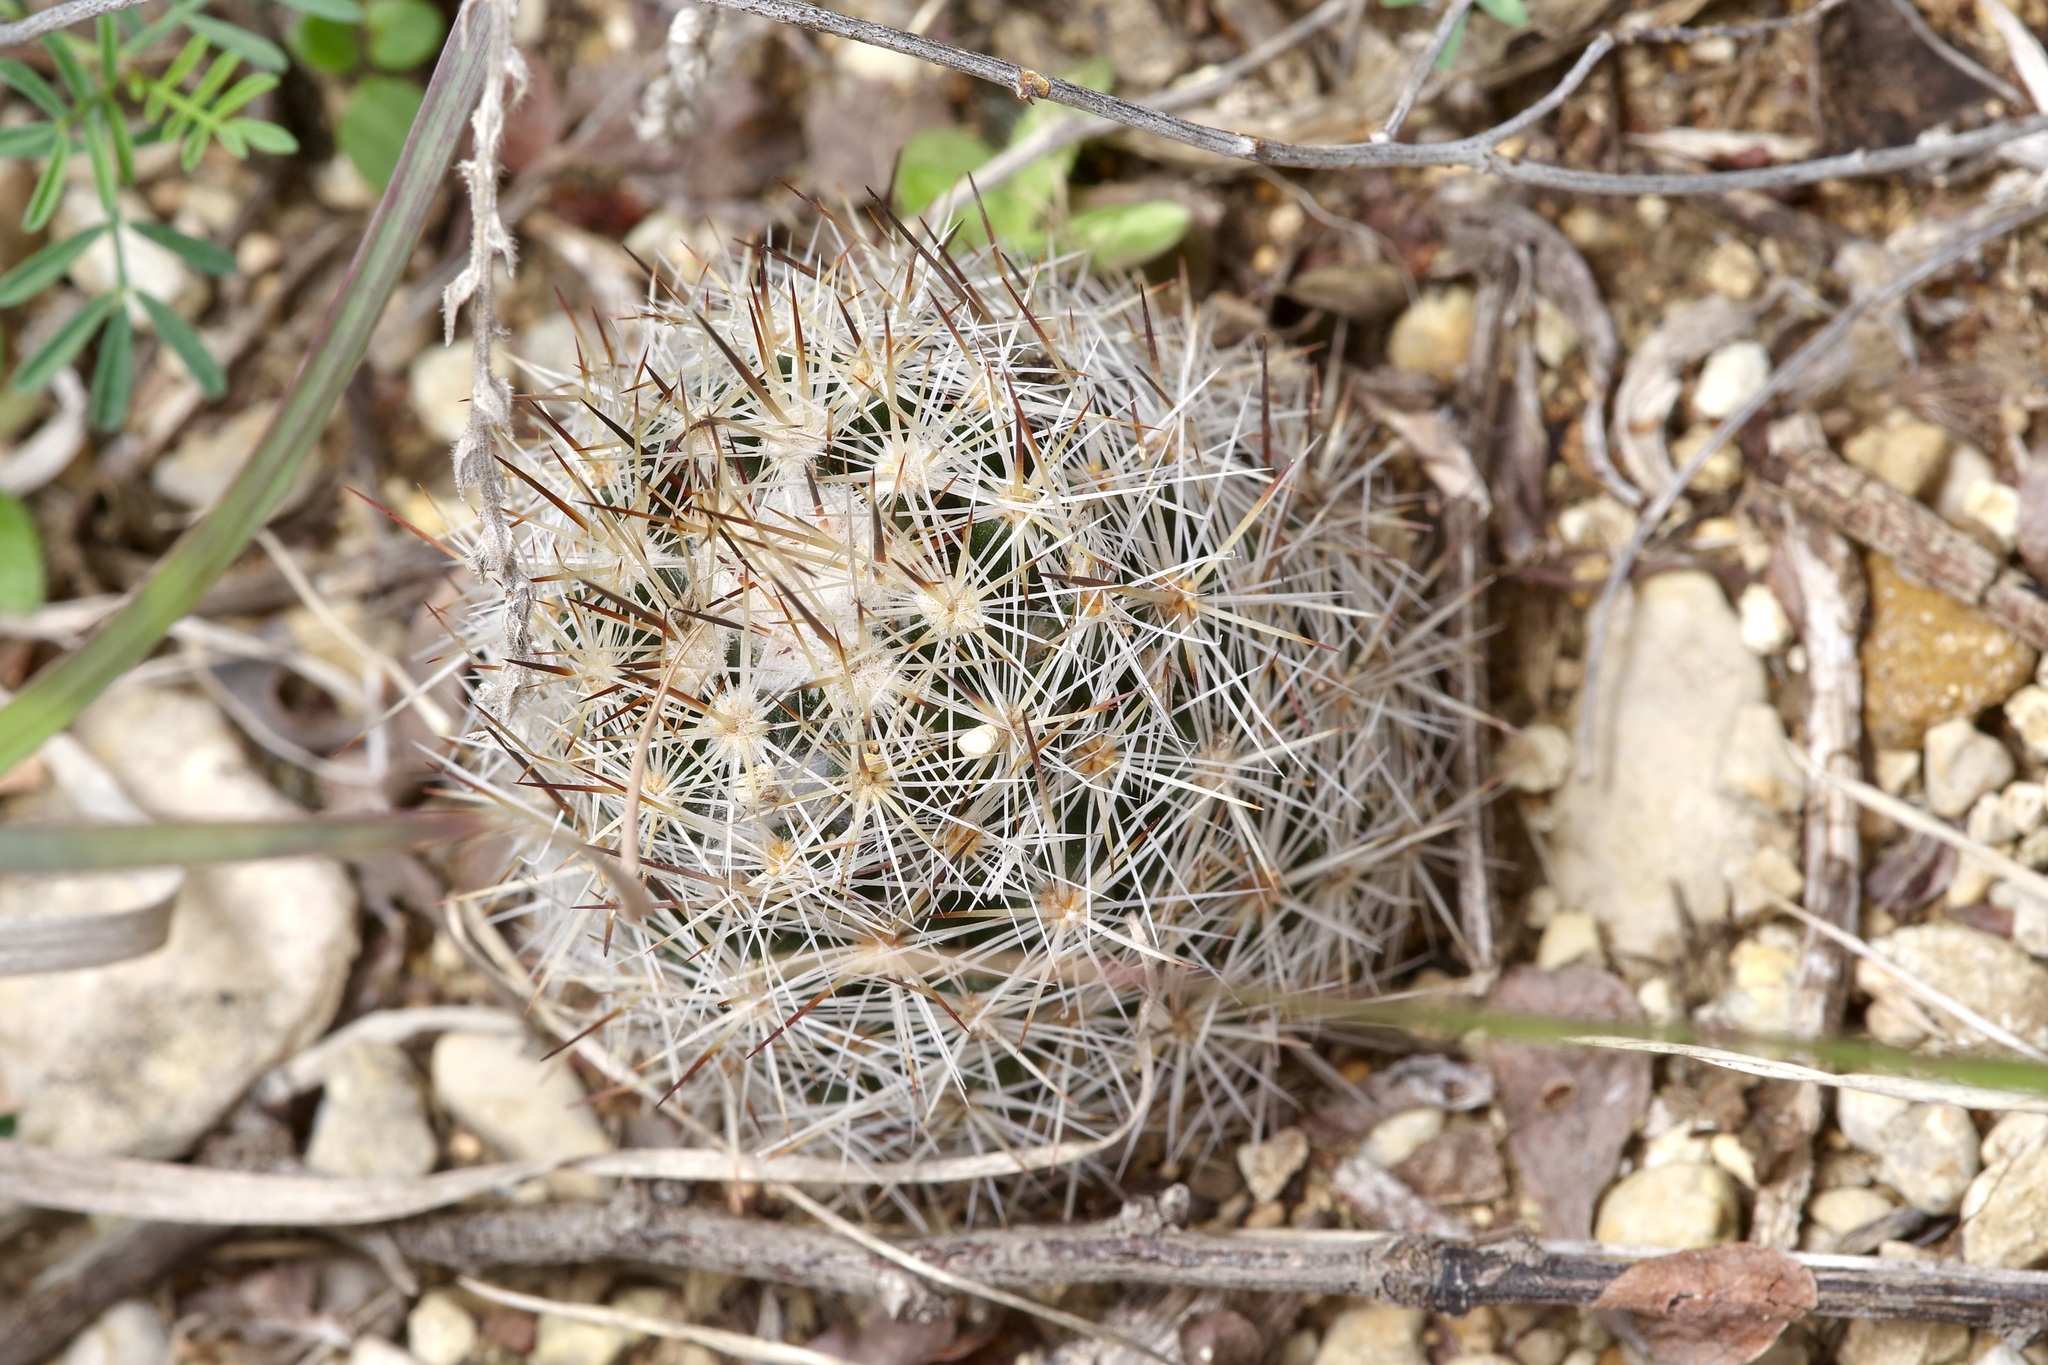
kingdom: Plantae
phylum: Tracheophyta
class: Magnoliopsida
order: Caryophyllales
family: Cactaceae
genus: Pelecyphora
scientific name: Pelecyphora emskoetteriana
